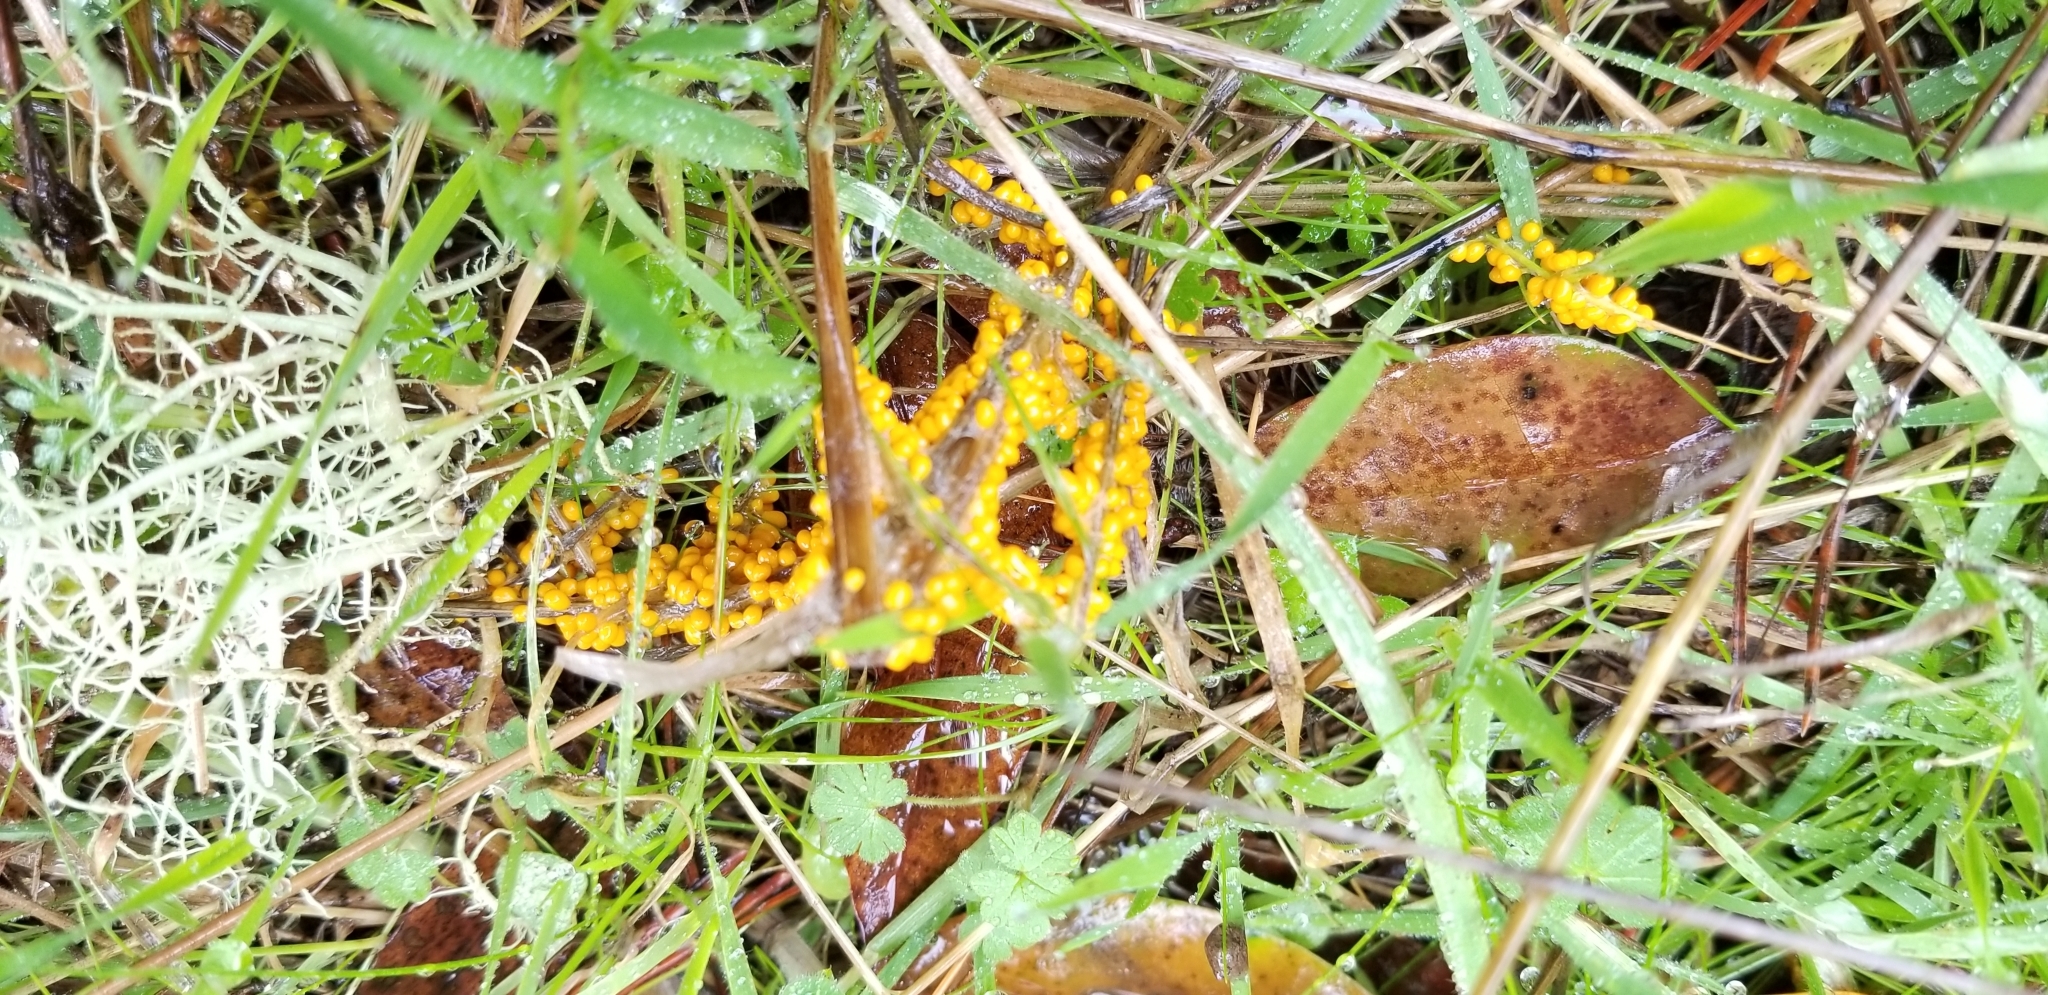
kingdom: Protozoa
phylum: Mycetozoa
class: Myxomycetes
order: Physarales
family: Physaraceae
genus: Leocarpus
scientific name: Leocarpus fragilis
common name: Insect-egg slime
